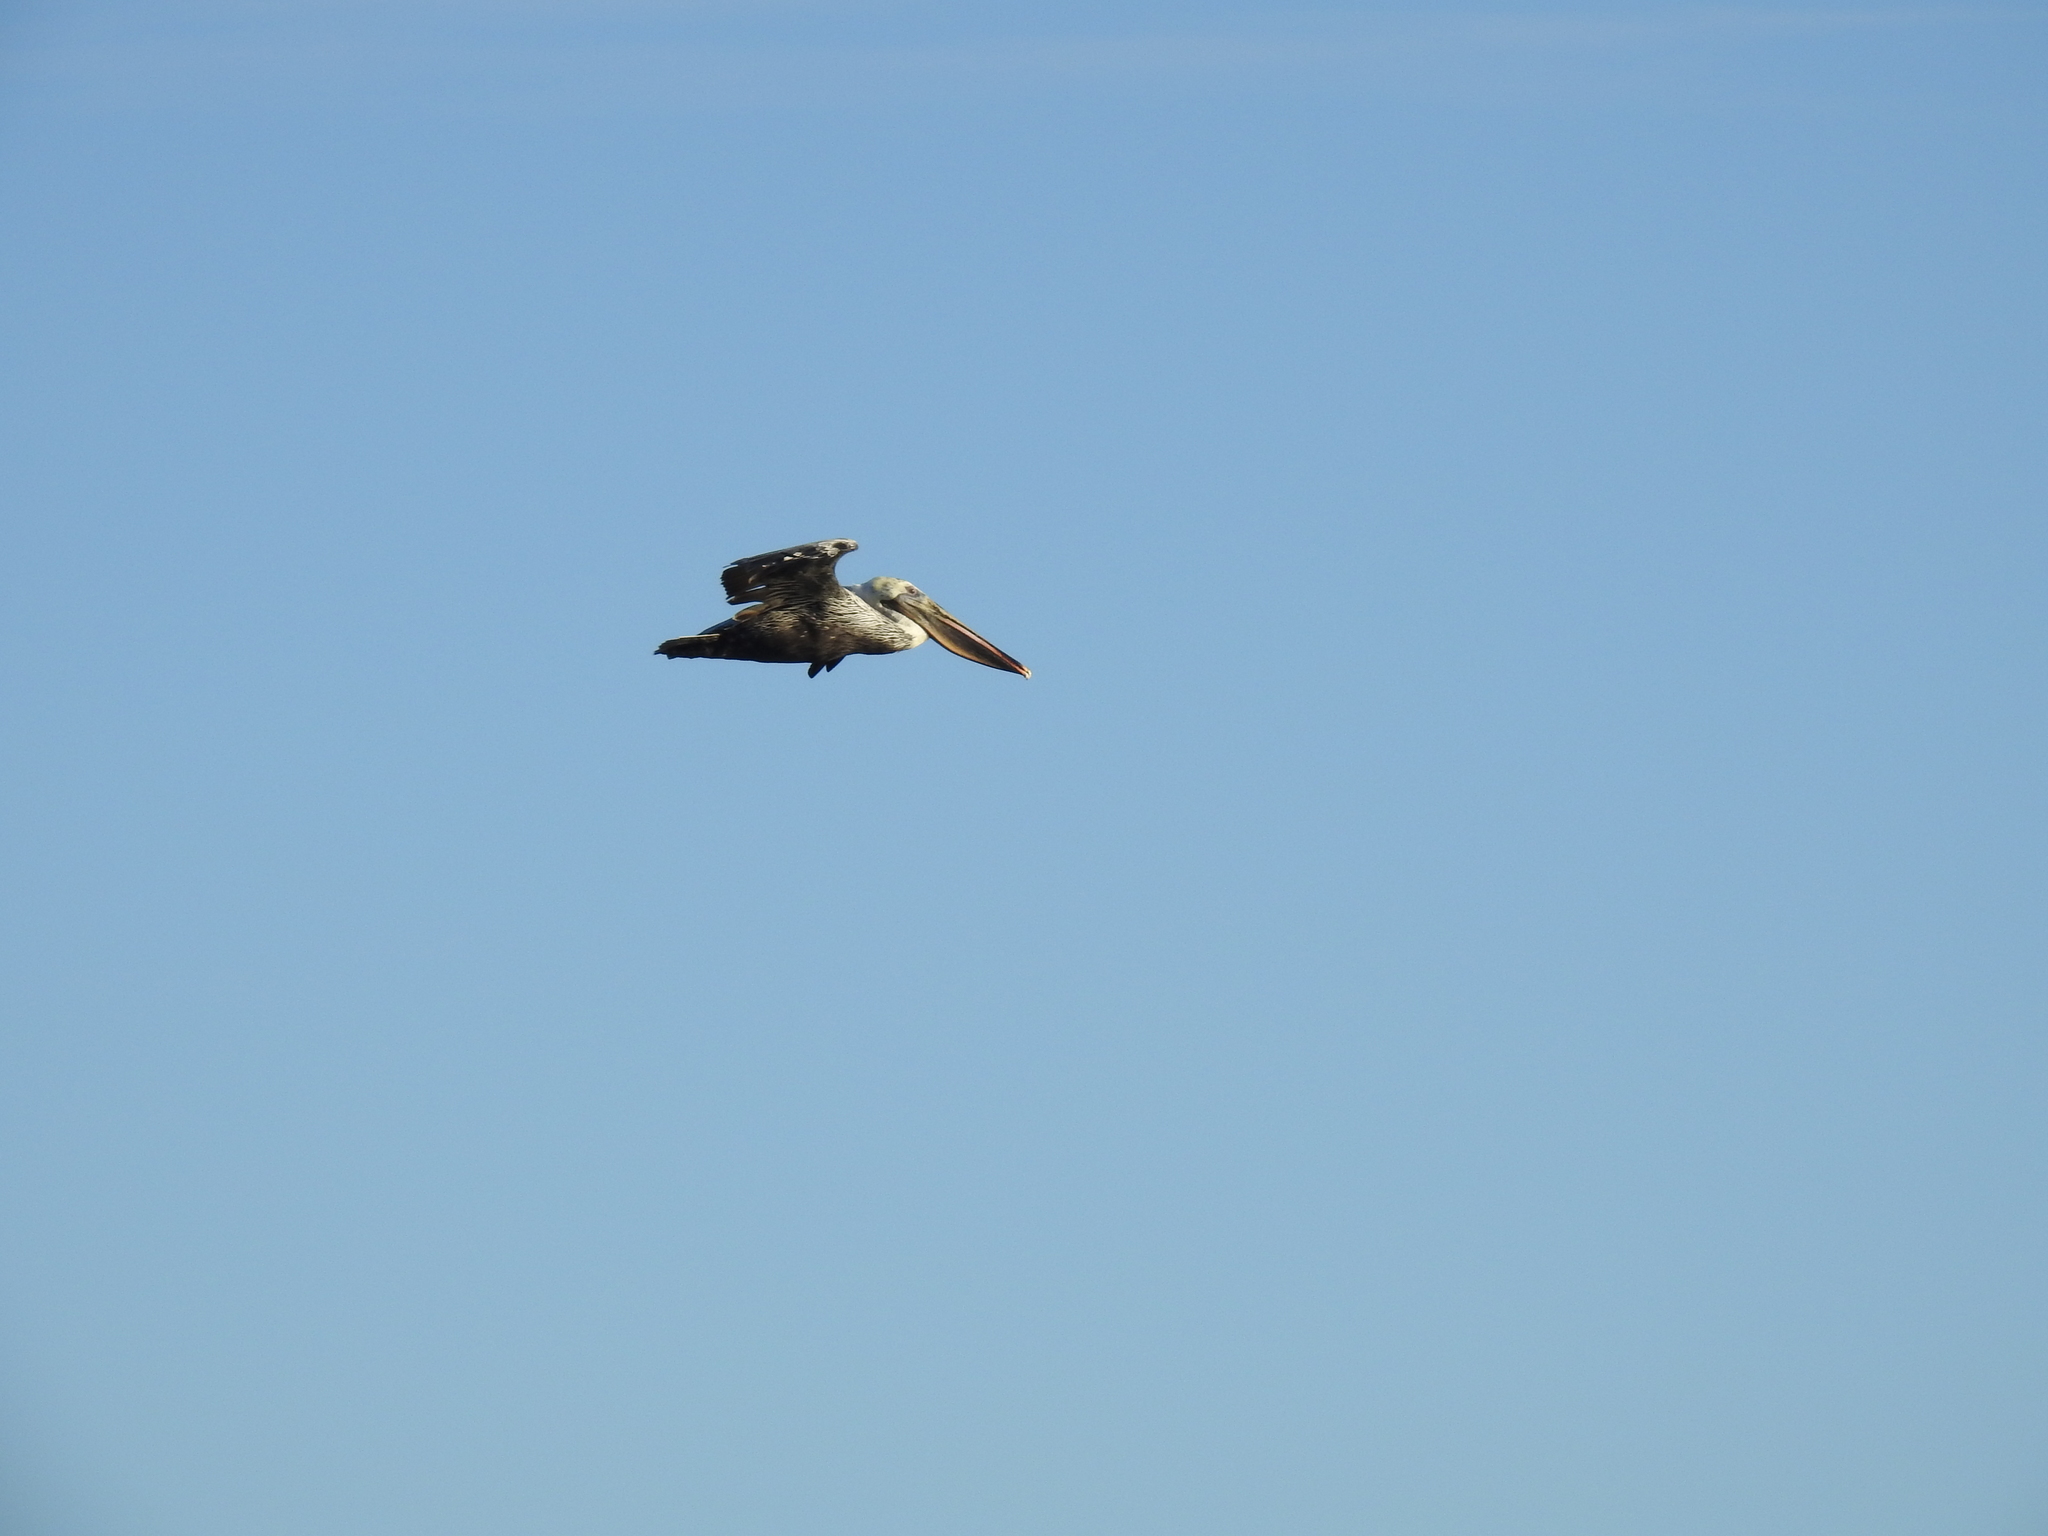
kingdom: Animalia
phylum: Chordata
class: Aves
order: Pelecaniformes
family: Pelecanidae
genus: Pelecanus
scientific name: Pelecanus occidentalis
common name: Brown pelican
